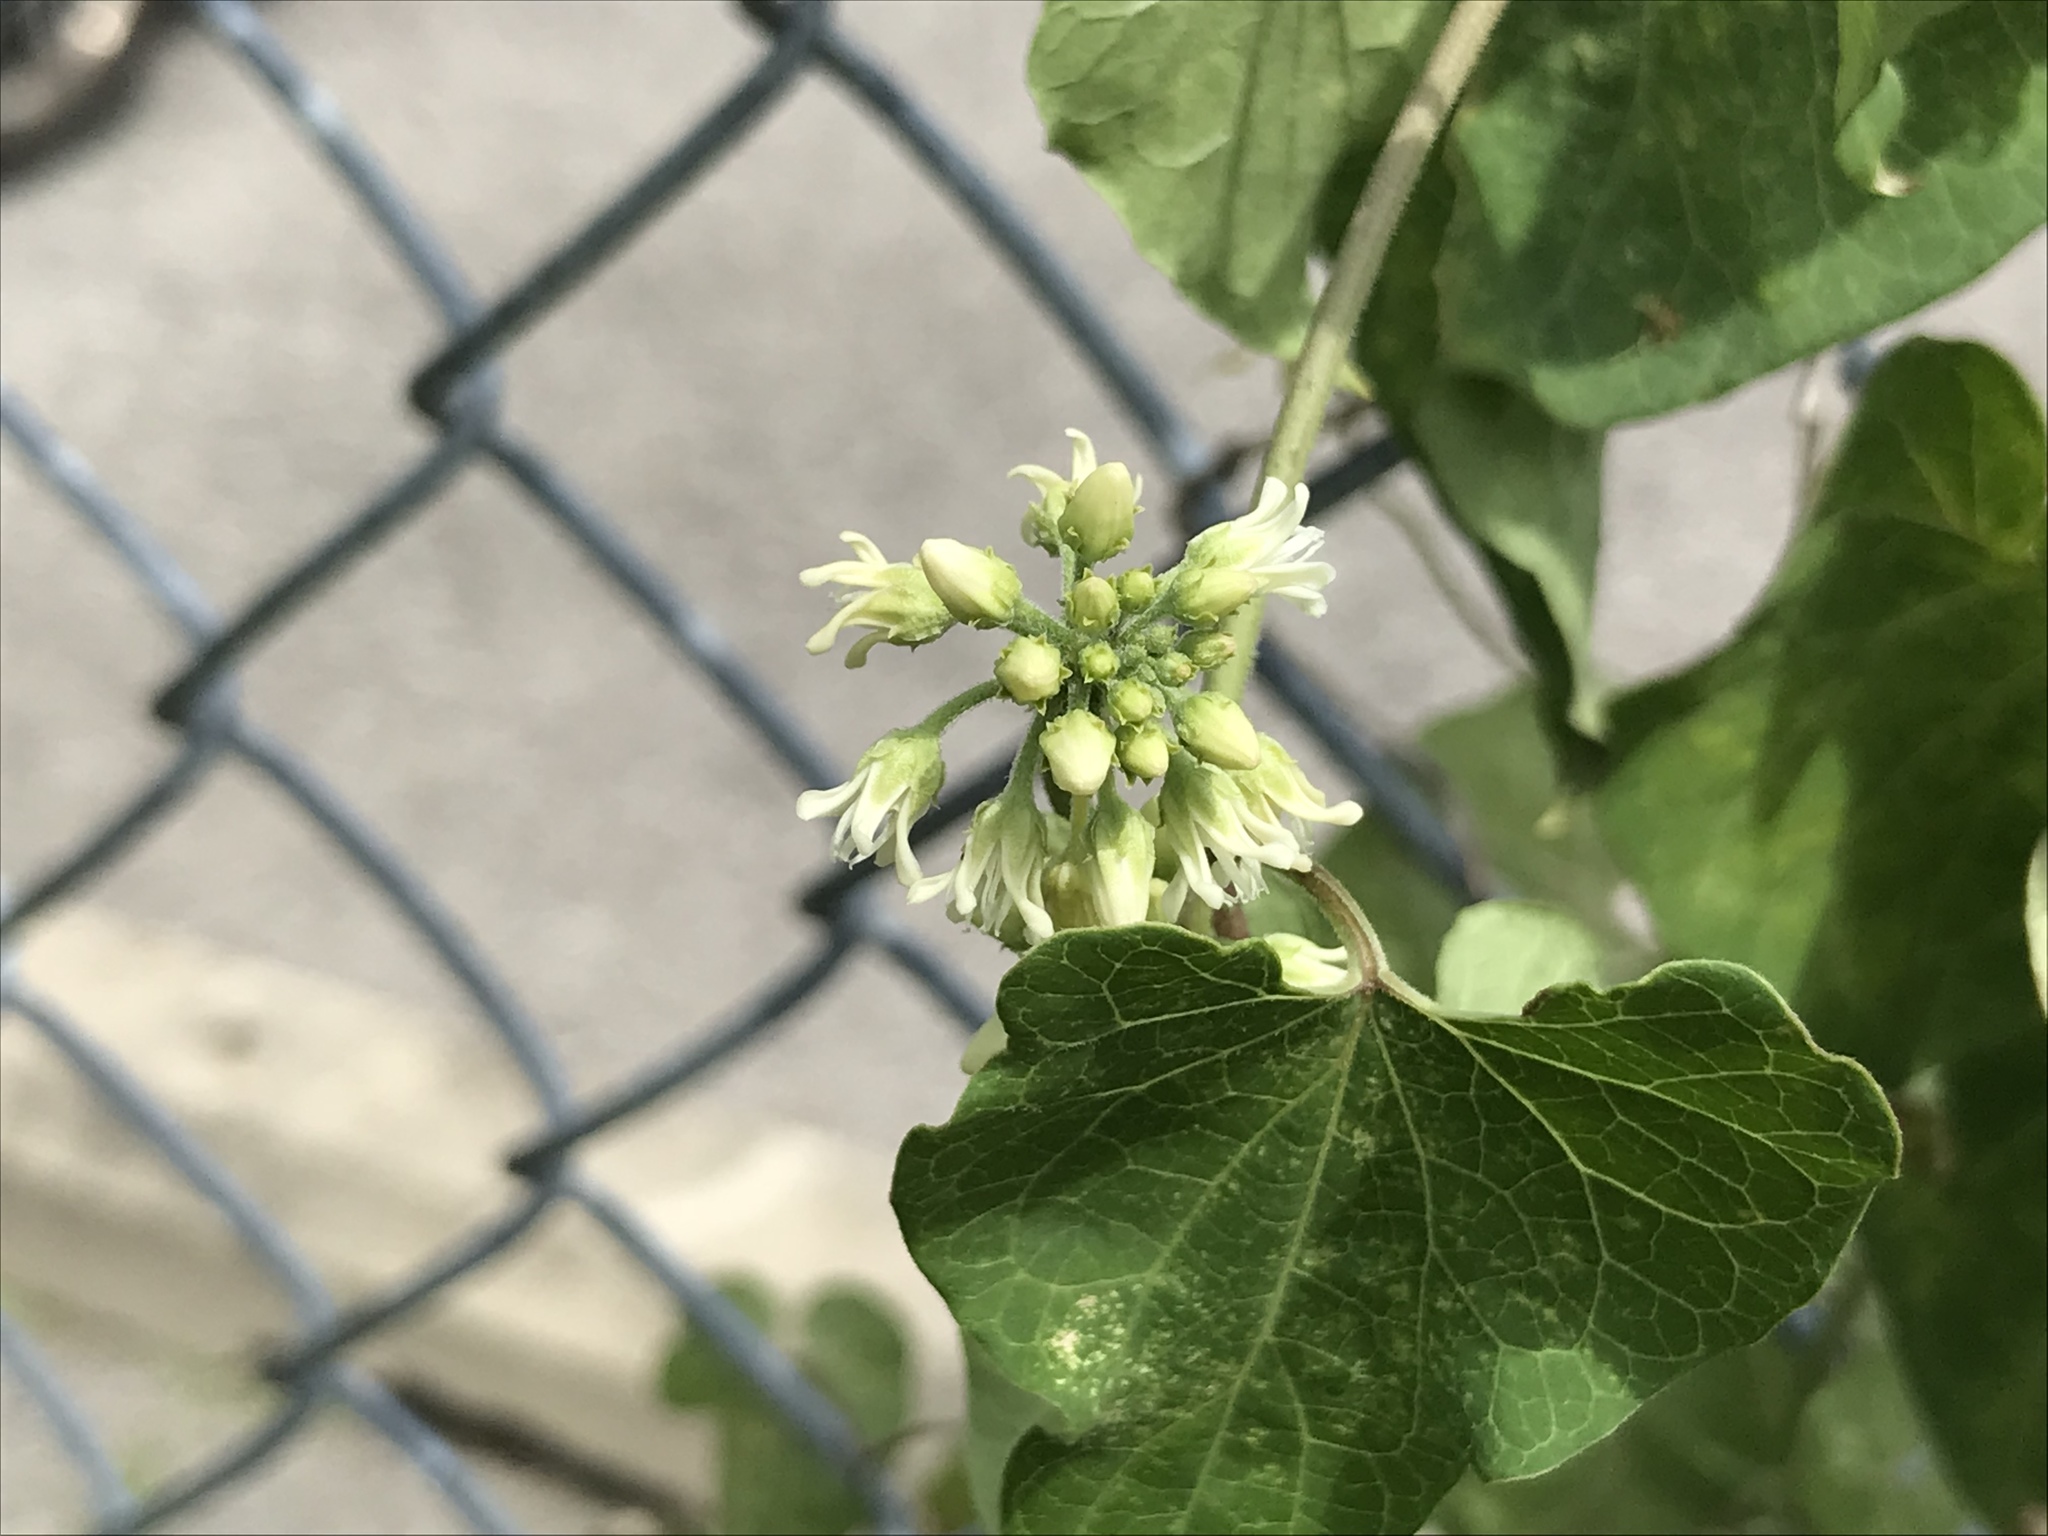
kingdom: Plantae
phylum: Tracheophyta
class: Magnoliopsida
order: Gentianales
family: Apocynaceae
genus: Cynanchum
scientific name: Cynanchum laeve
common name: Sandvine
